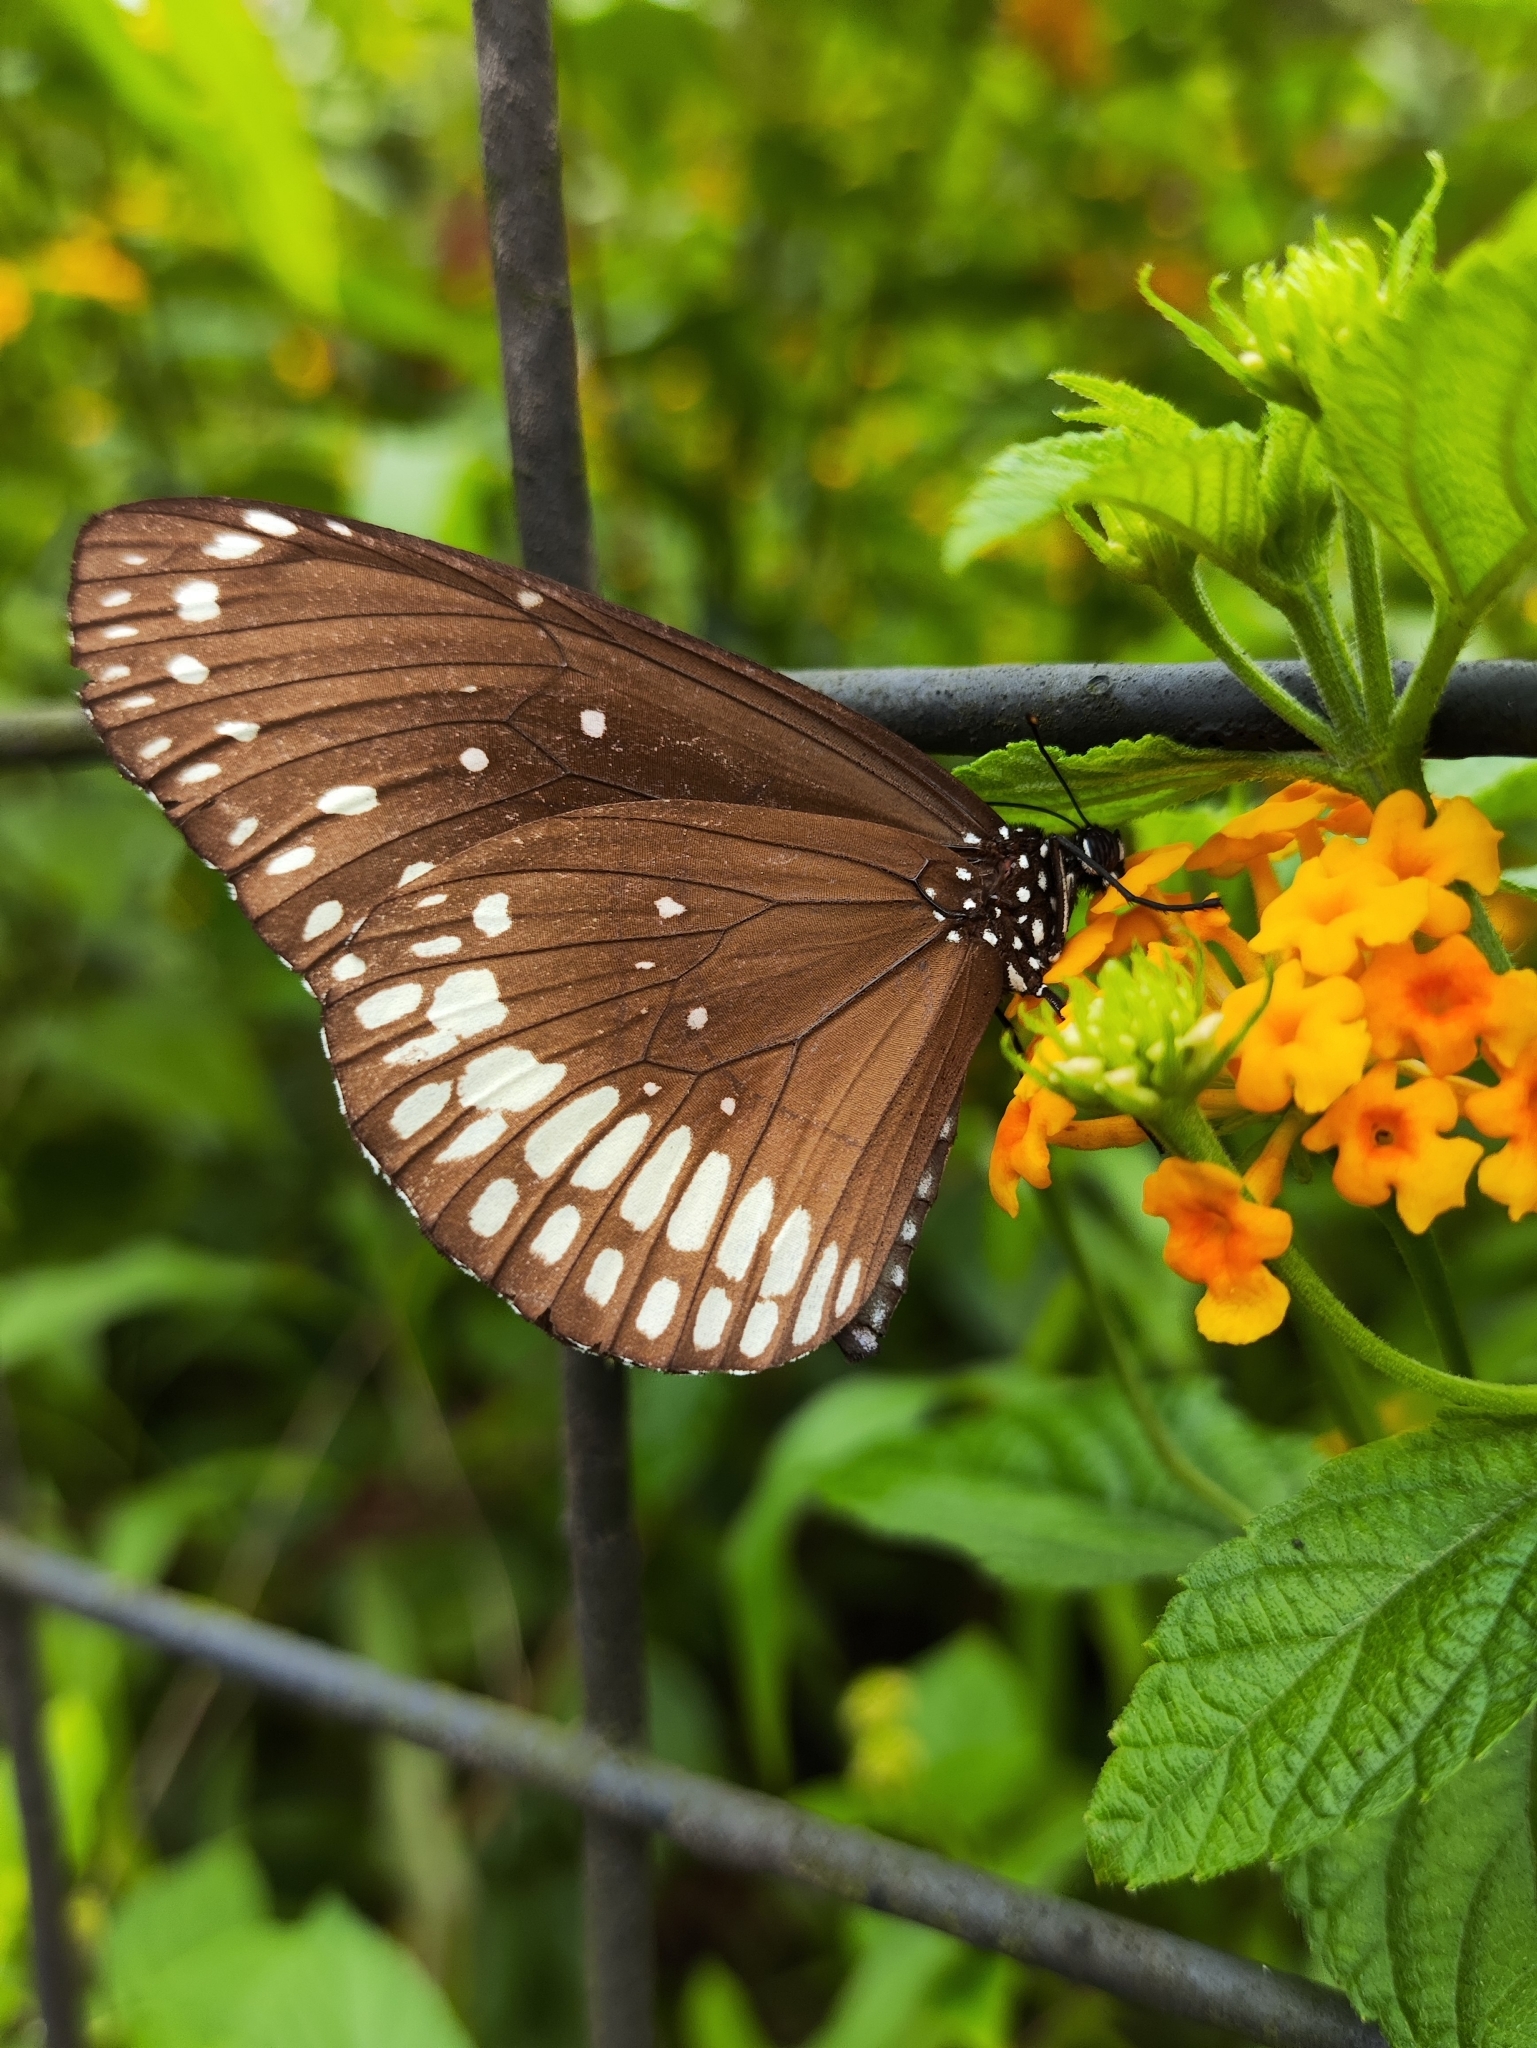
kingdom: Animalia
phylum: Arthropoda
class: Insecta
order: Lepidoptera
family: Nymphalidae
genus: Euploea
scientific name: Euploea core
